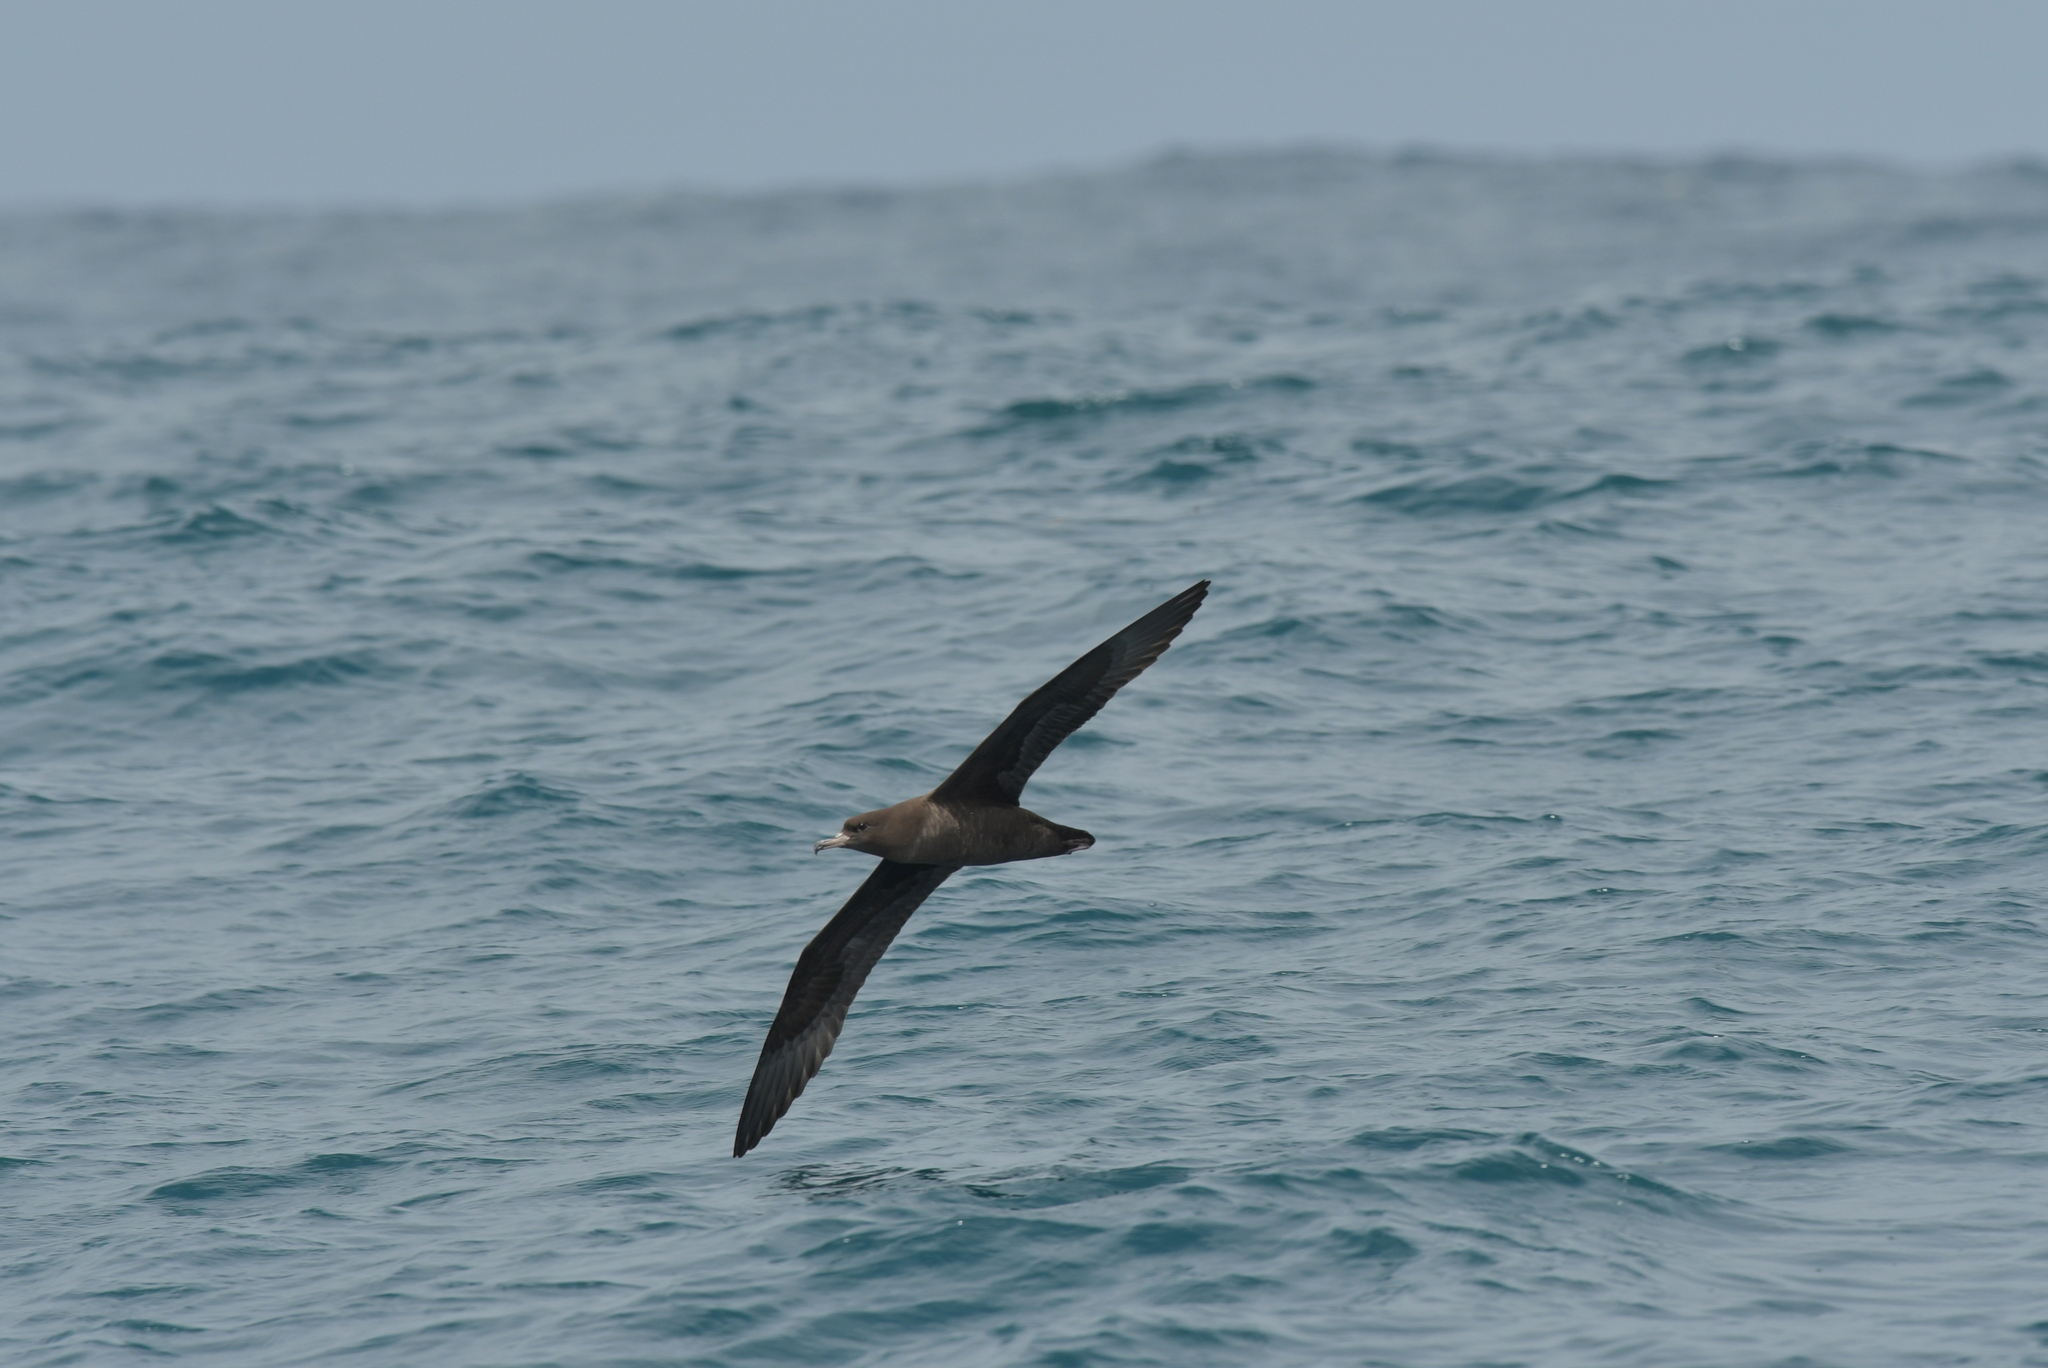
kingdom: Animalia
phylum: Chordata
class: Aves
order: Procellariiformes
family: Procellariidae
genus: Puffinus
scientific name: Puffinus carneipes
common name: Flesh-footed shearwater
